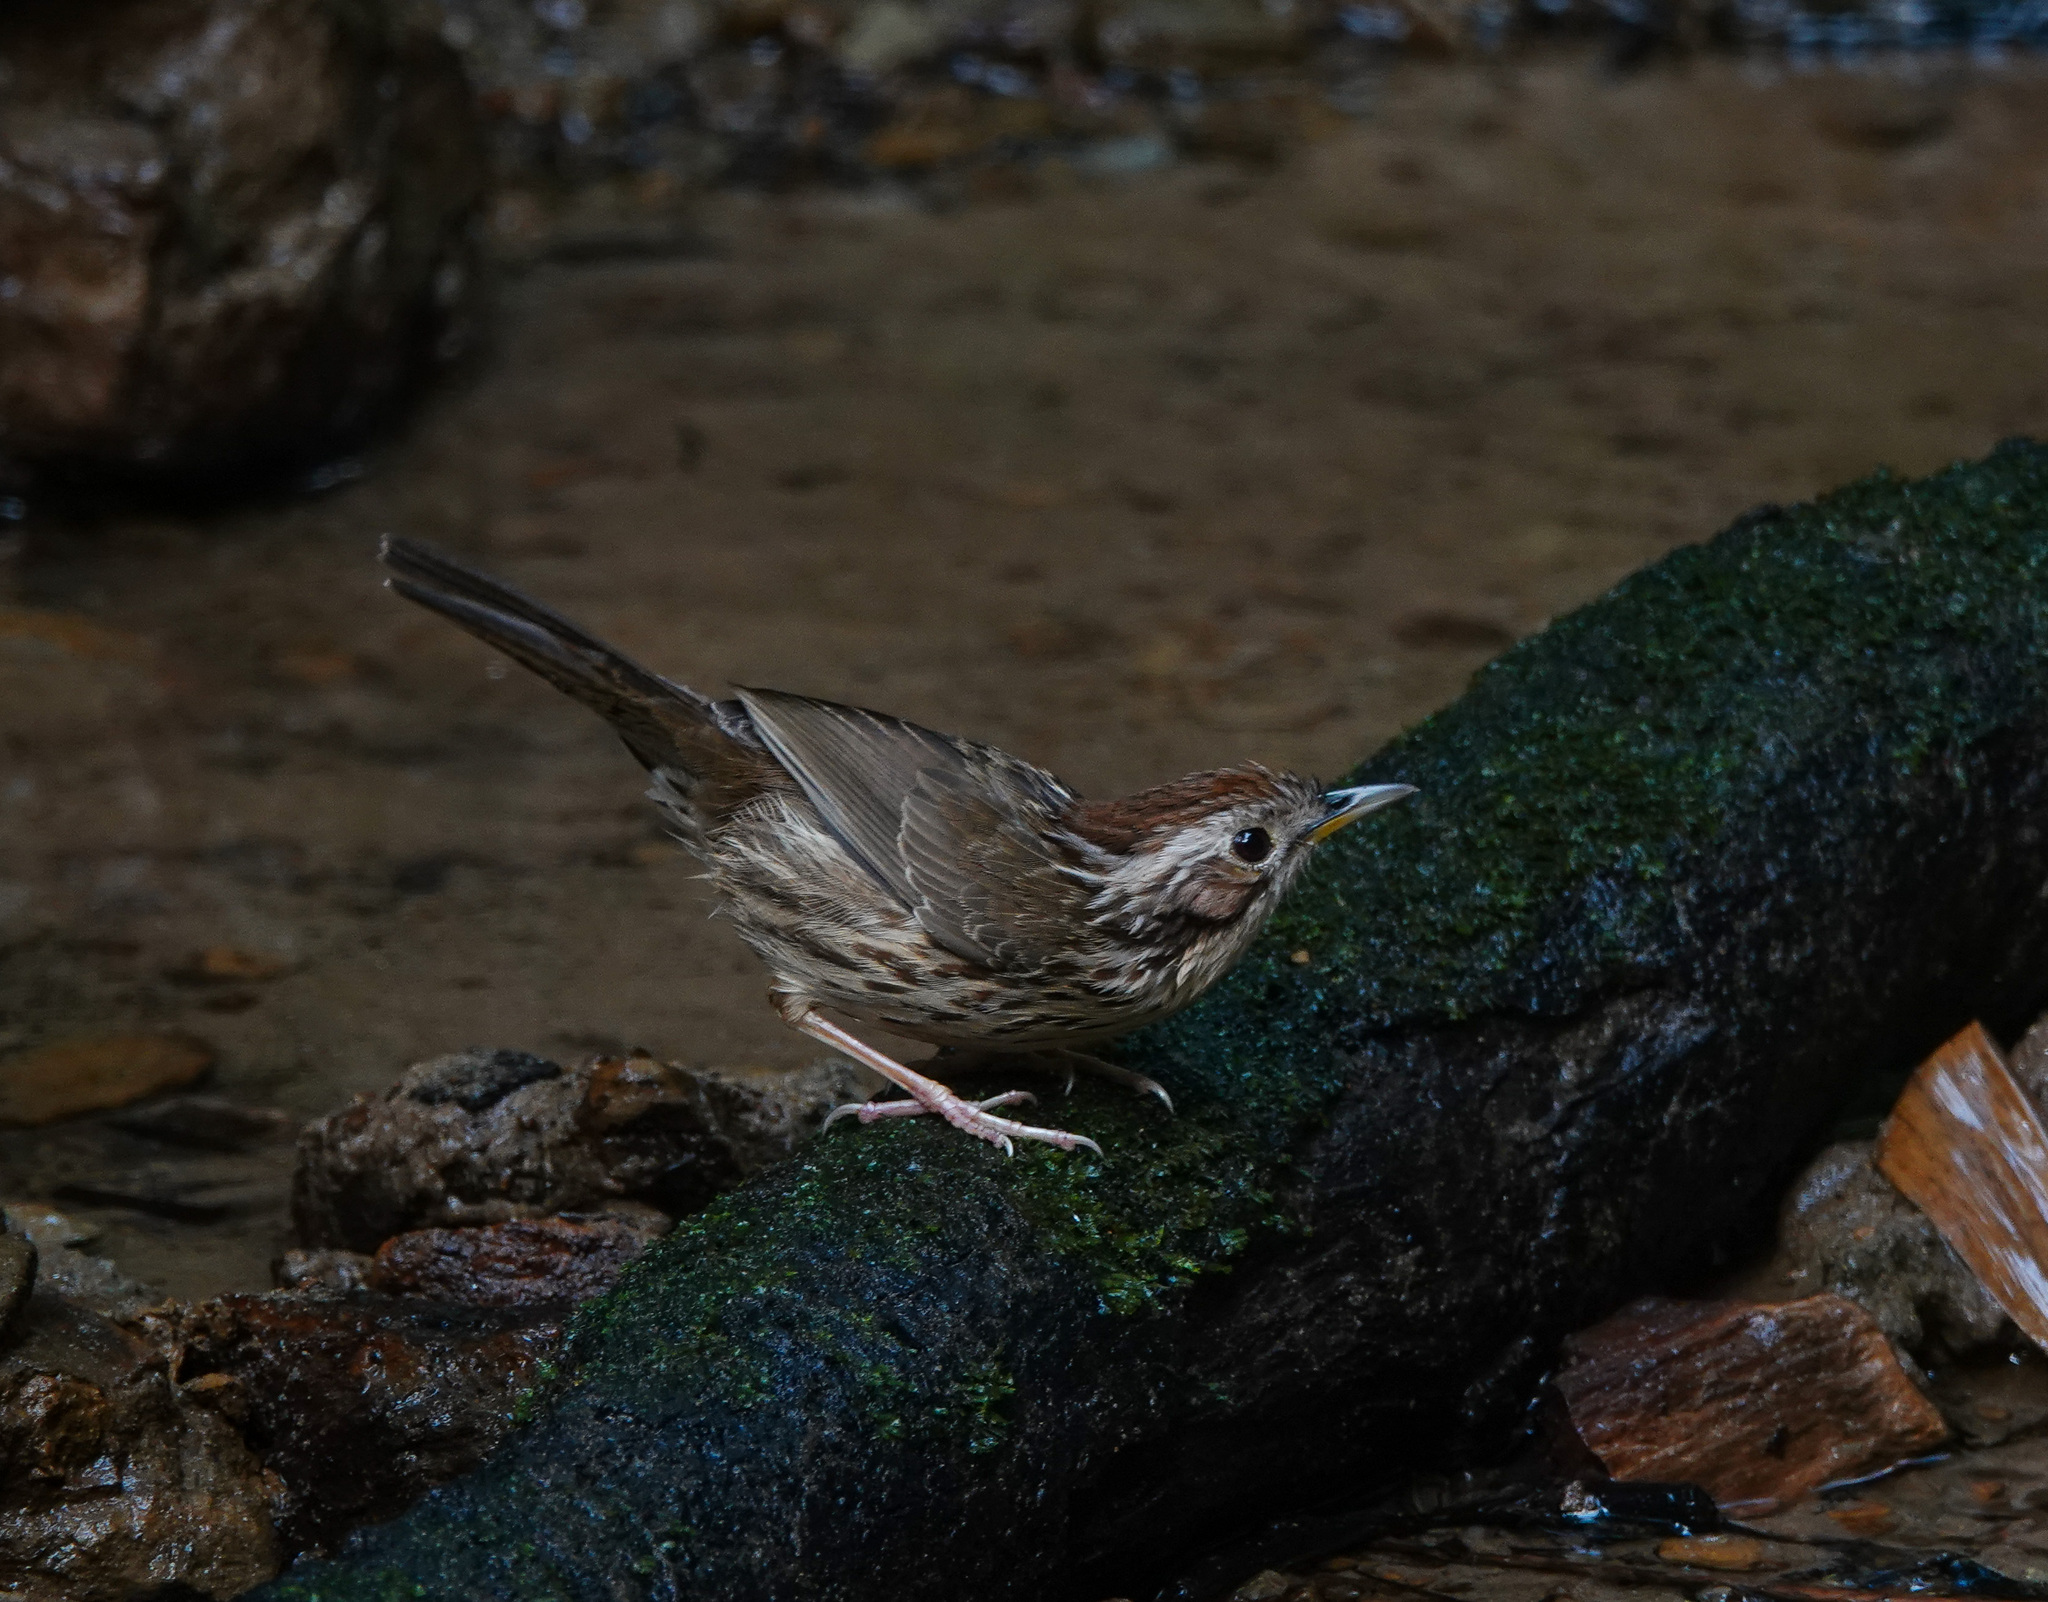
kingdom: Animalia
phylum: Chordata
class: Aves
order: Passeriformes
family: Pellorneidae
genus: Pellorneum
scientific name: Pellorneum ruficeps
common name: Puff-throated babbler
